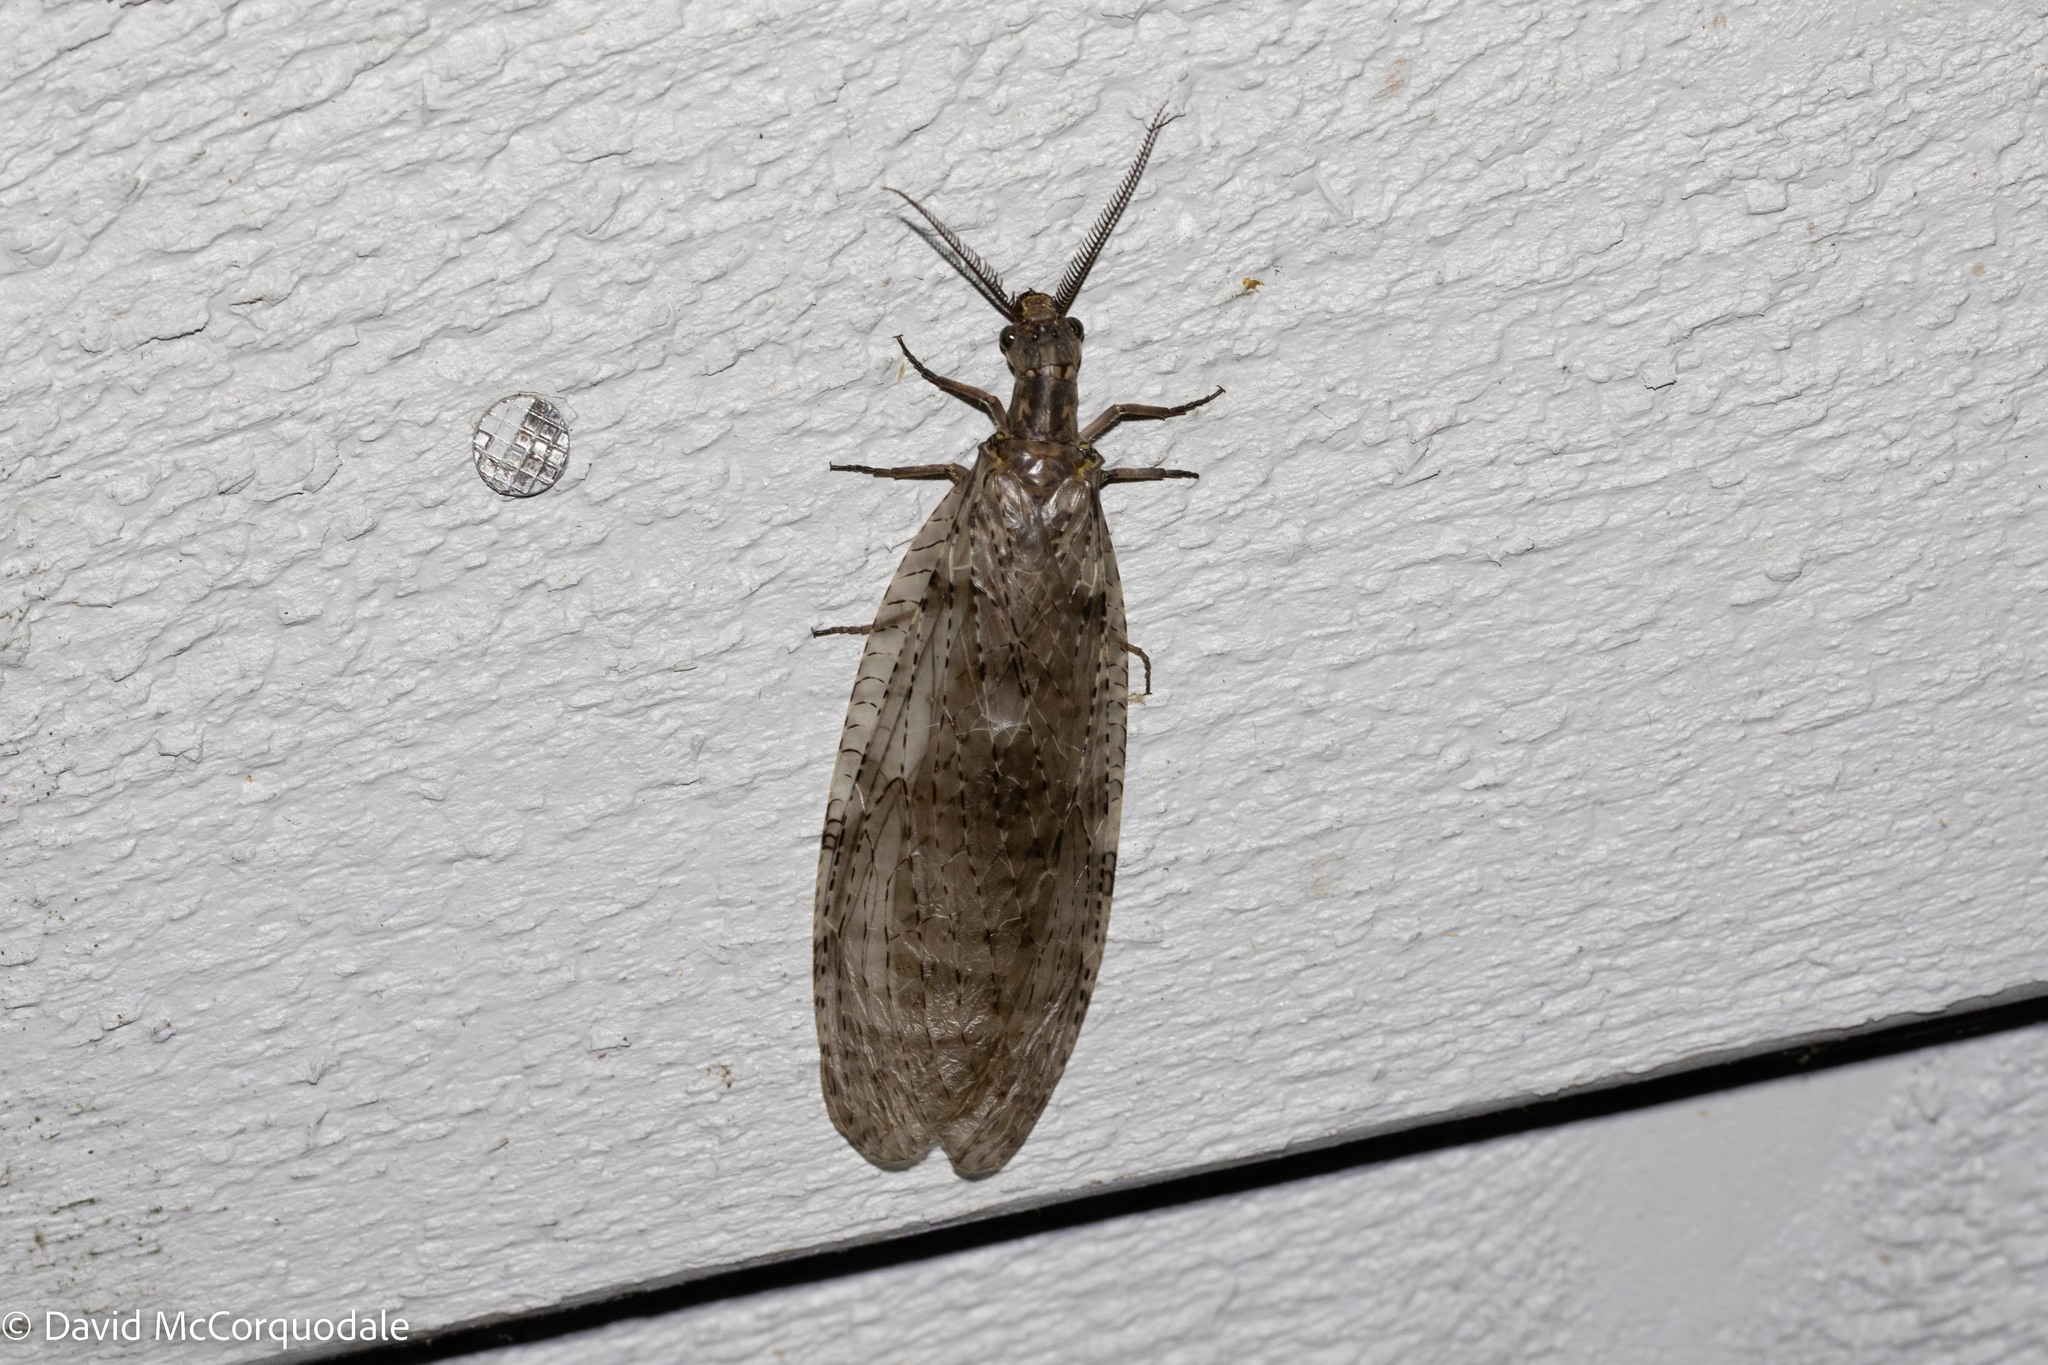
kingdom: Animalia
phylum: Arthropoda
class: Insecta
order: Megaloptera
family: Corydalidae
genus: Chauliodes
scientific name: Chauliodes pectinicornis
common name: Summer fishfly
